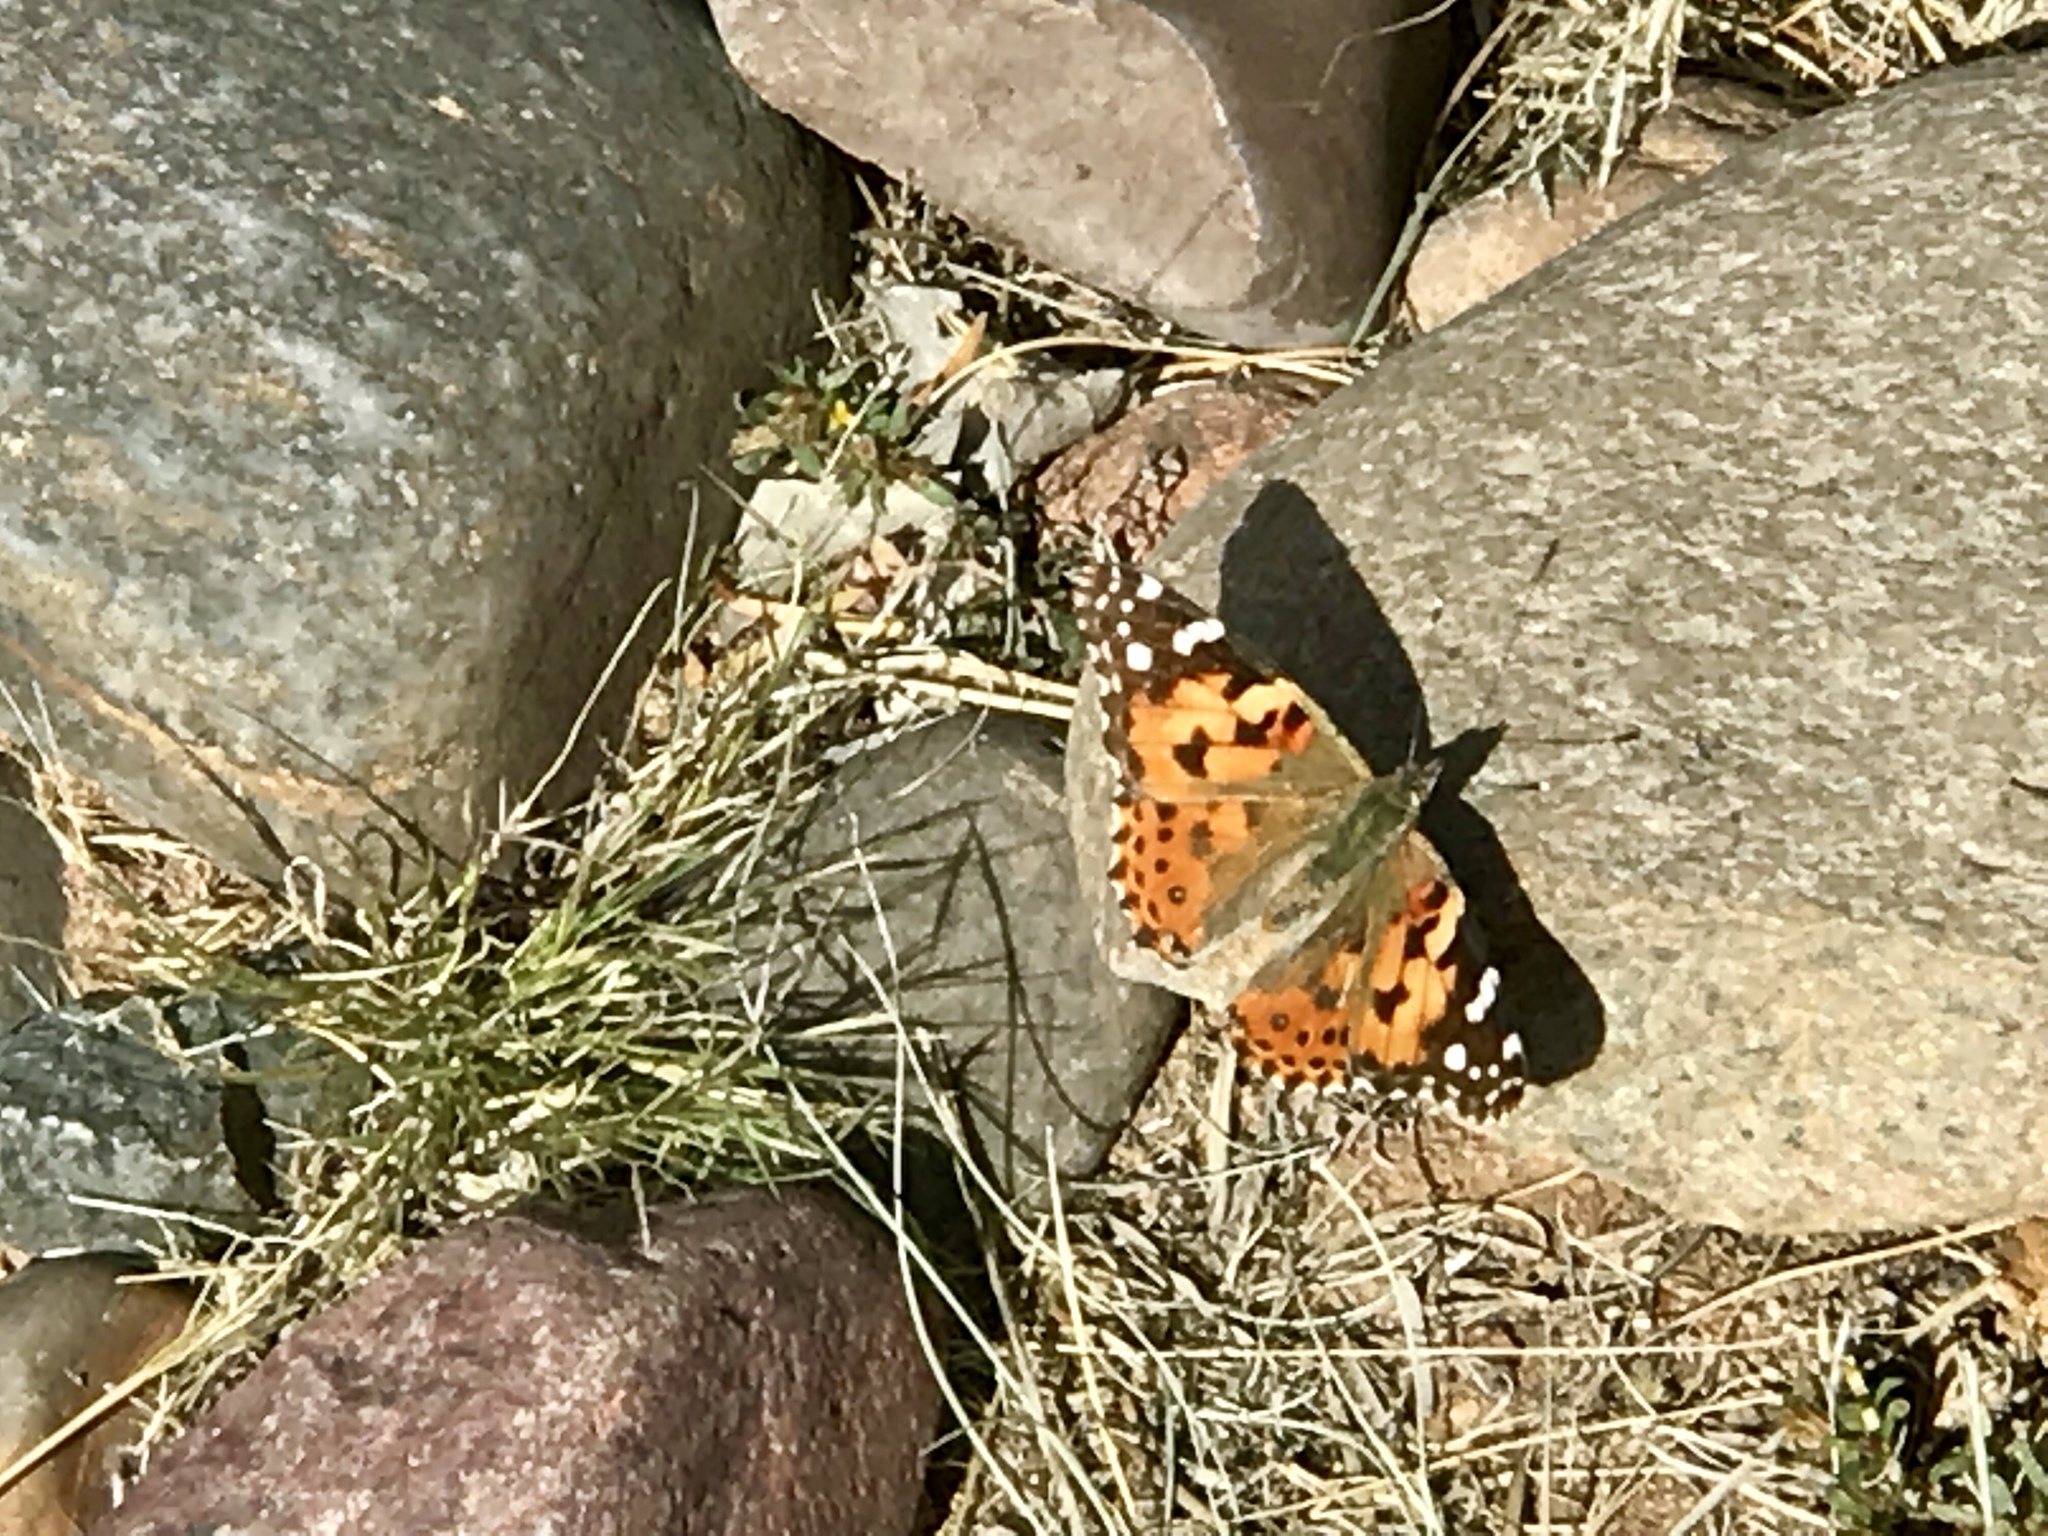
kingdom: Animalia
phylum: Arthropoda
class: Insecta
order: Lepidoptera
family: Nymphalidae
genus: Vanessa
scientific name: Vanessa cardui
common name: Painted lady
